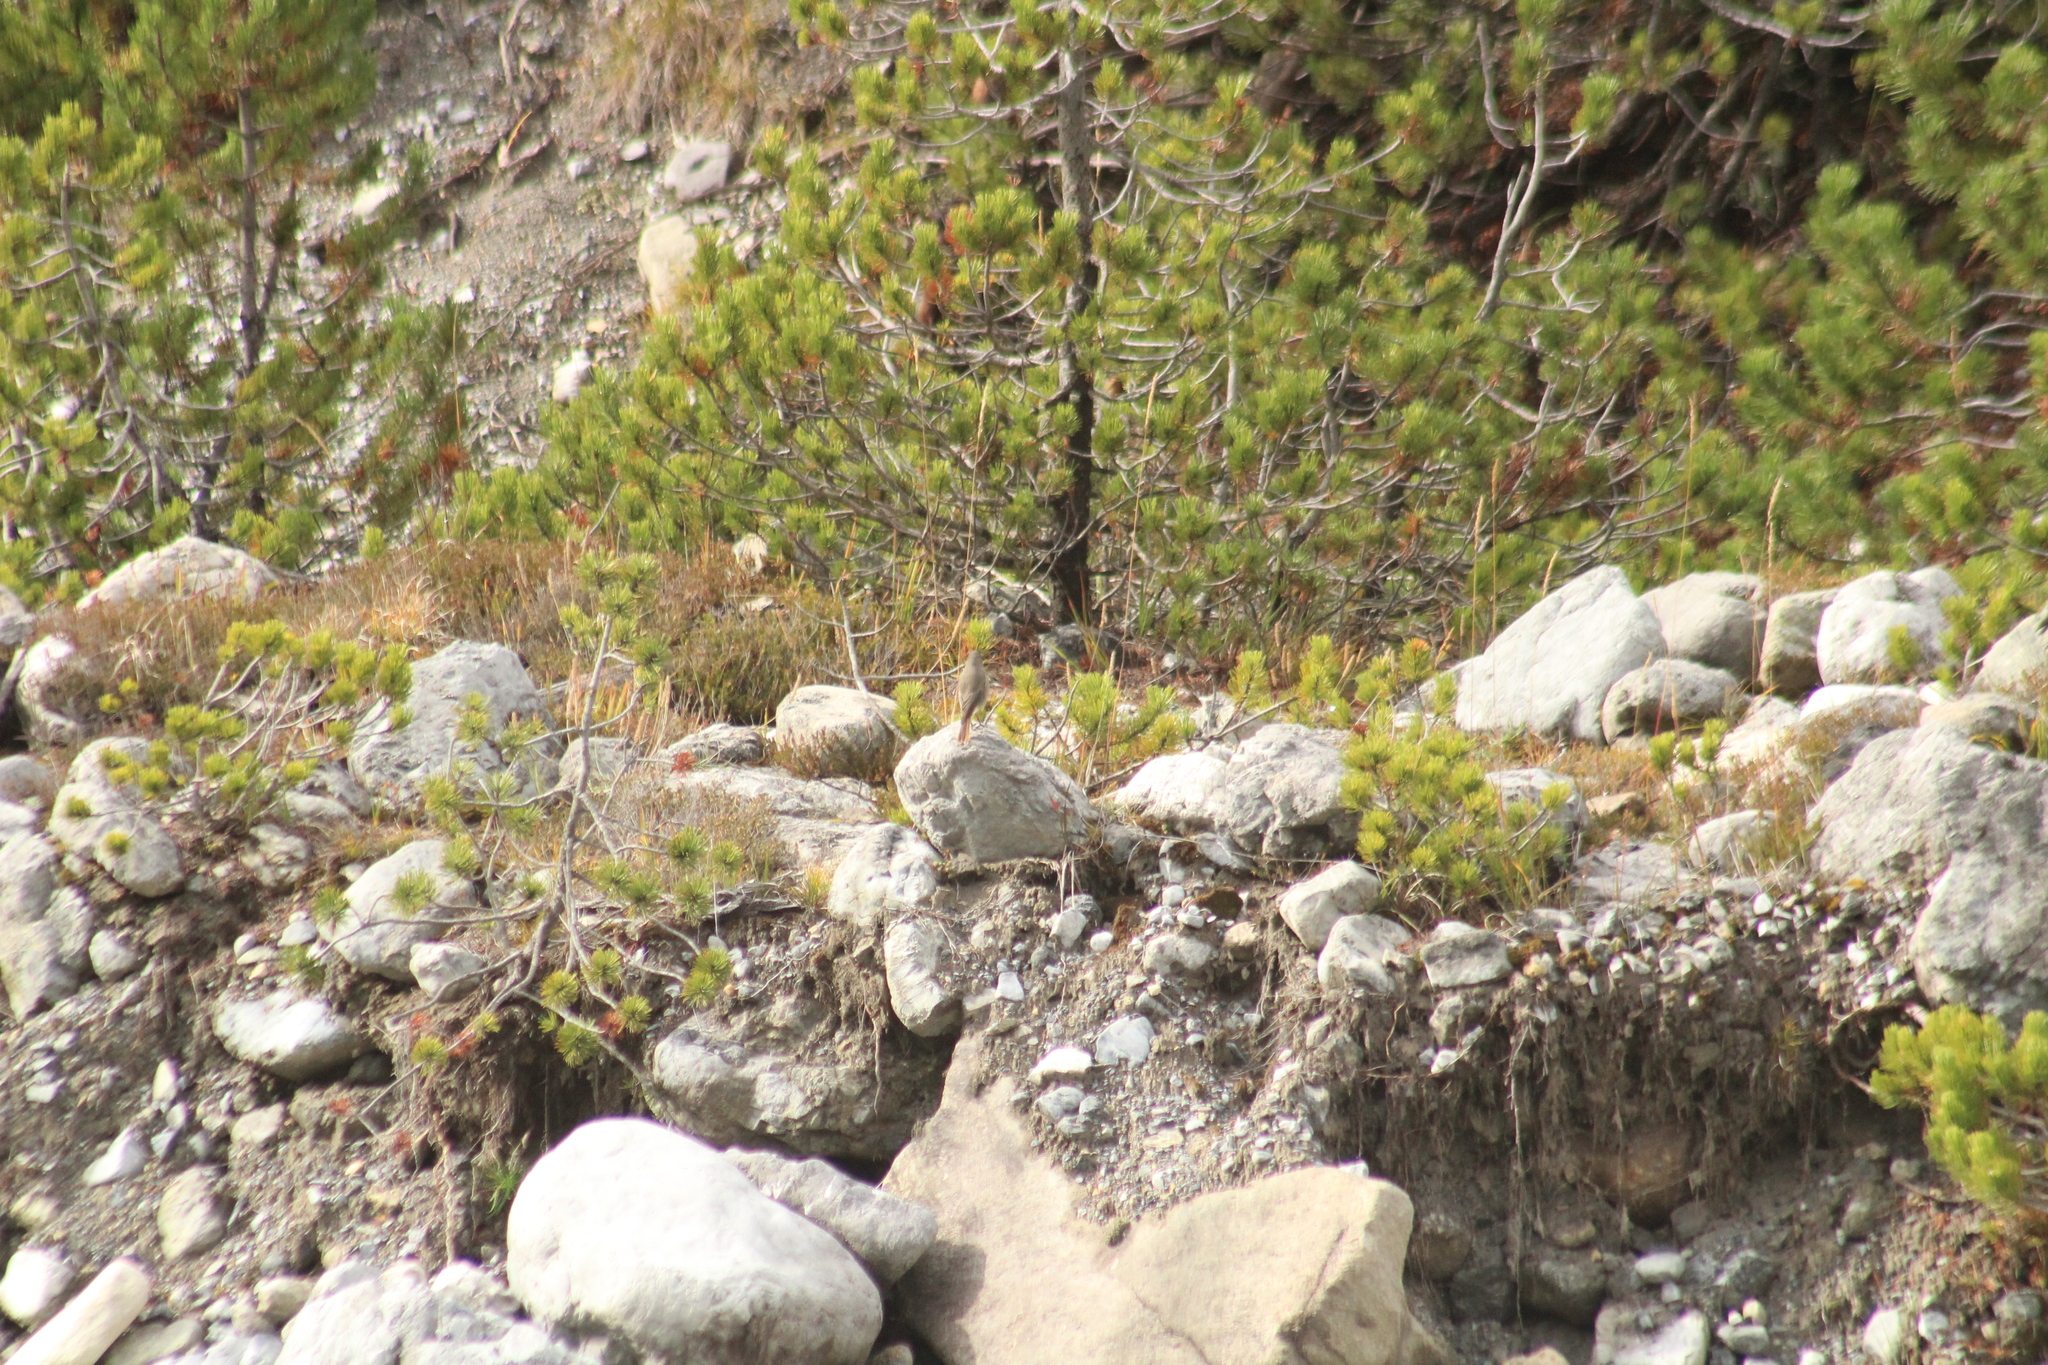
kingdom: Animalia
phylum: Chordata
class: Aves
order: Passeriformes
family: Muscicapidae
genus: Phoenicurus
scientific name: Phoenicurus ochruros
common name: Black redstart
